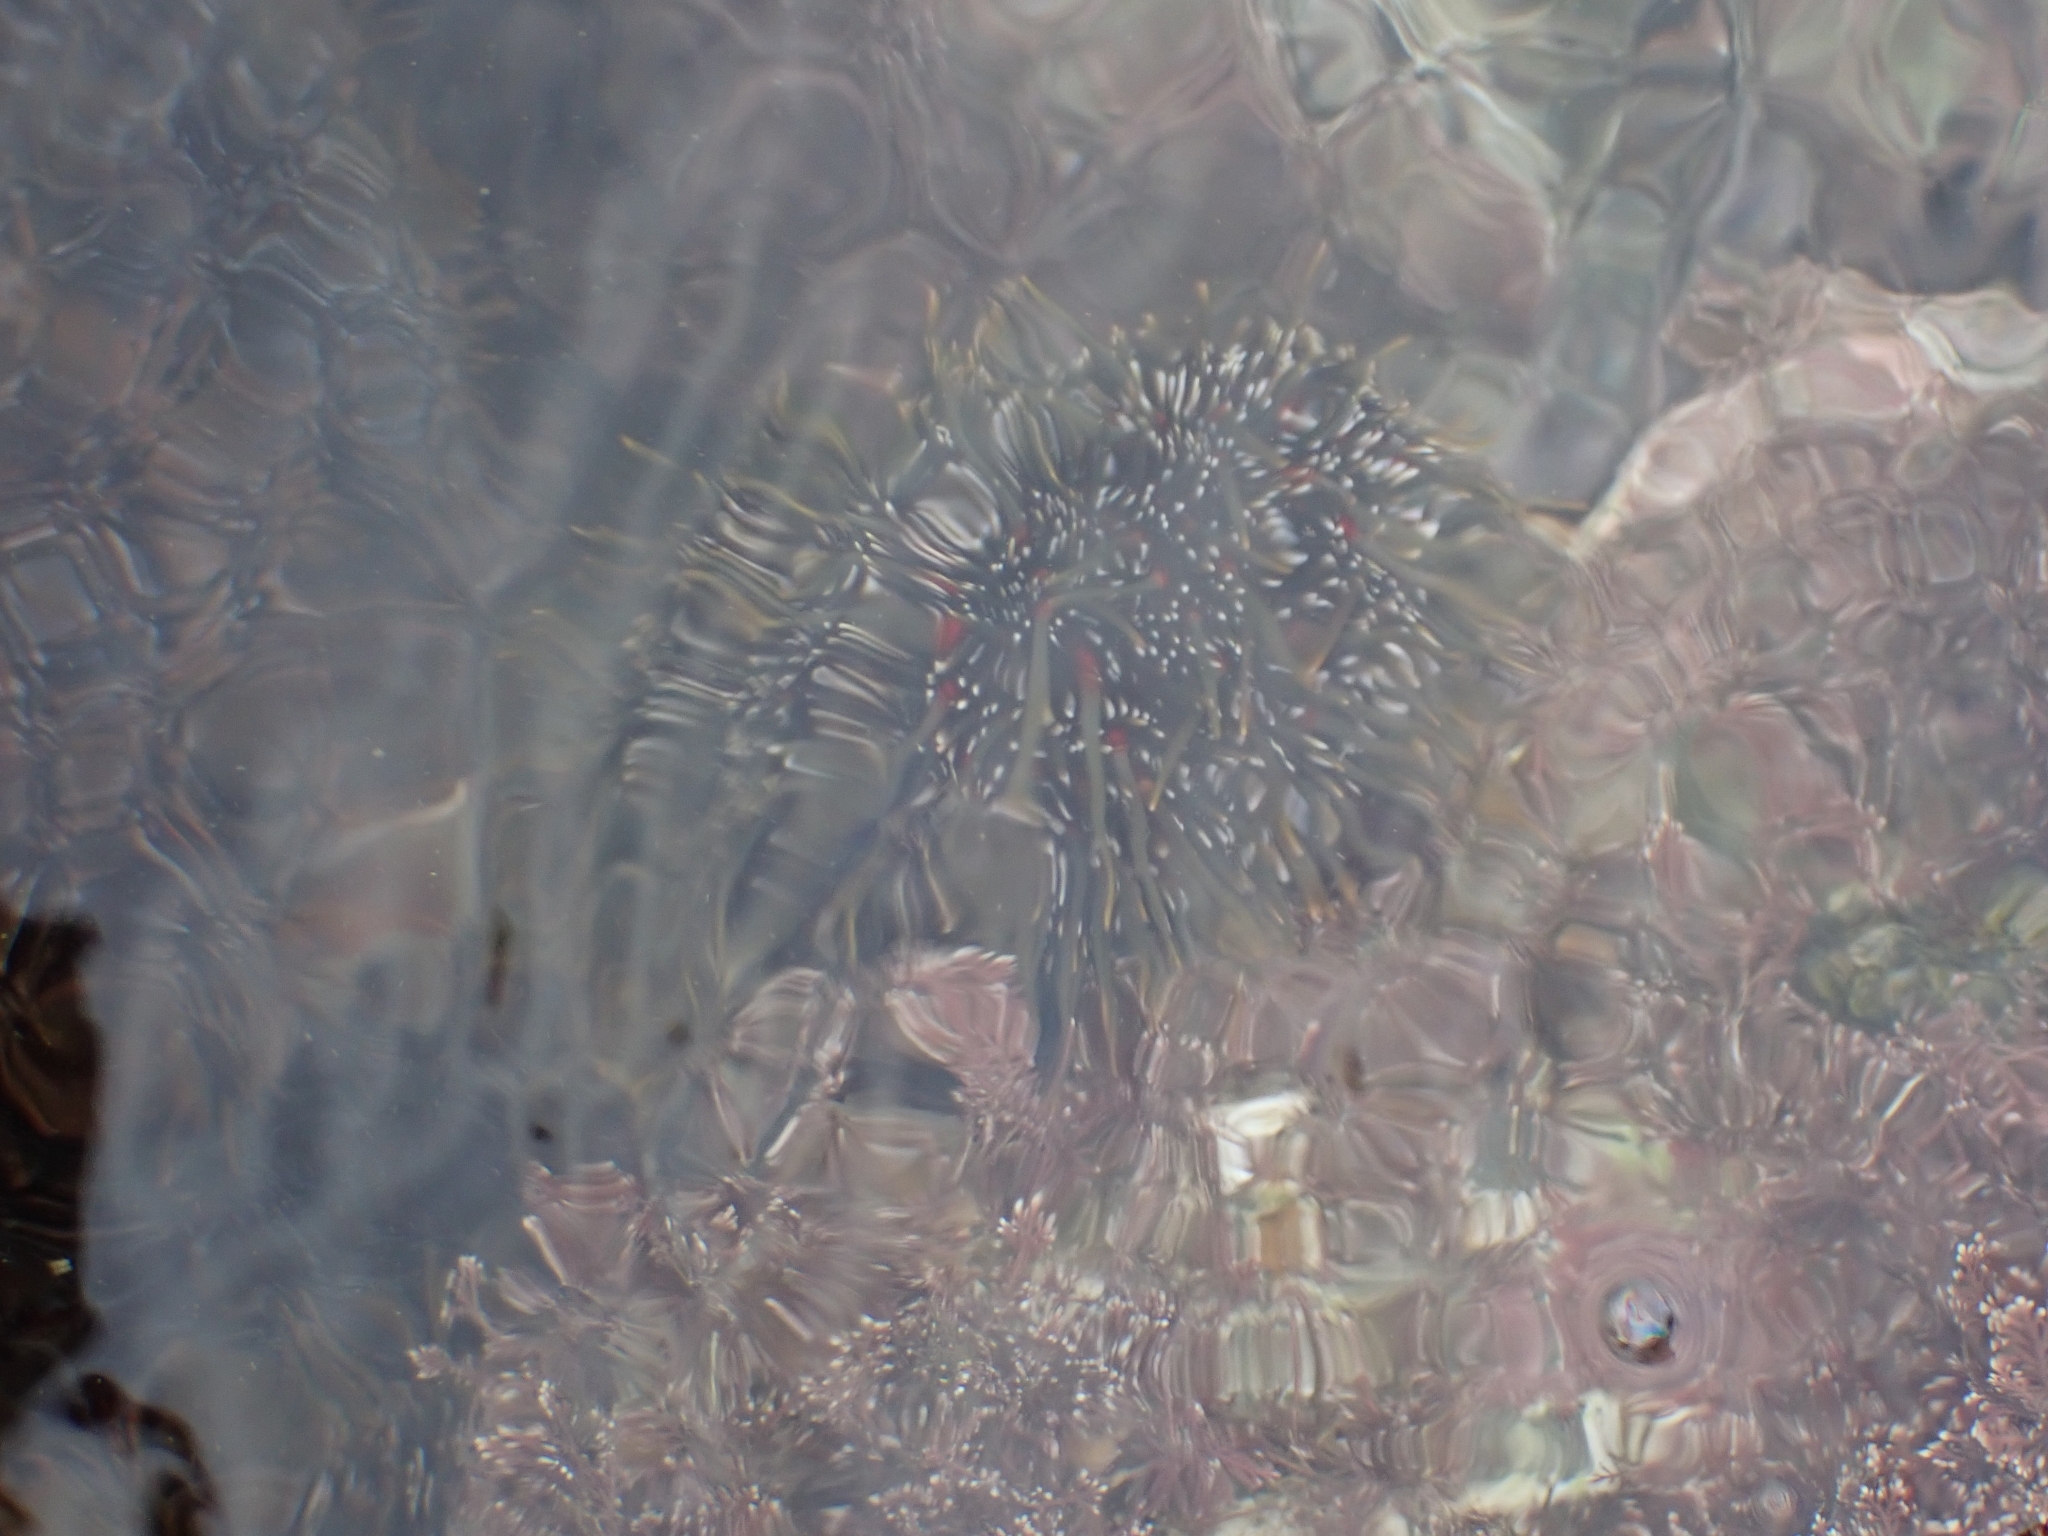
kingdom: Animalia
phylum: Echinodermata
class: Echinoidea
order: Camarodonta
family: Echinometridae
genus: Evechinus
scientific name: Evechinus chloroticus
